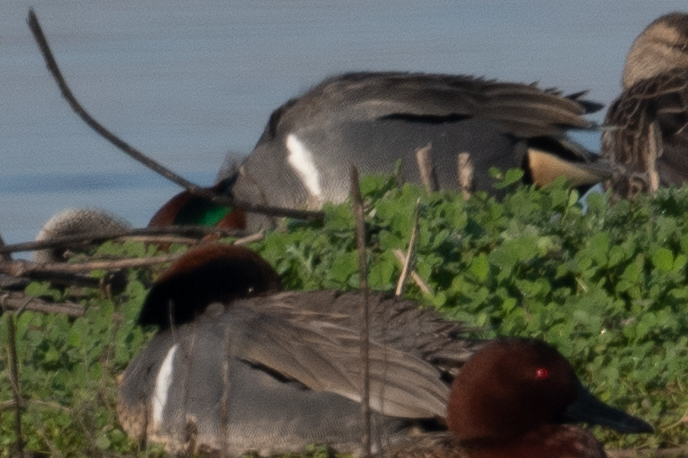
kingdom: Animalia
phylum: Chordata
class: Aves
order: Anseriformes
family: Anatidae
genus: Anas
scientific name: Anas crecca
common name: Eurasian teal
